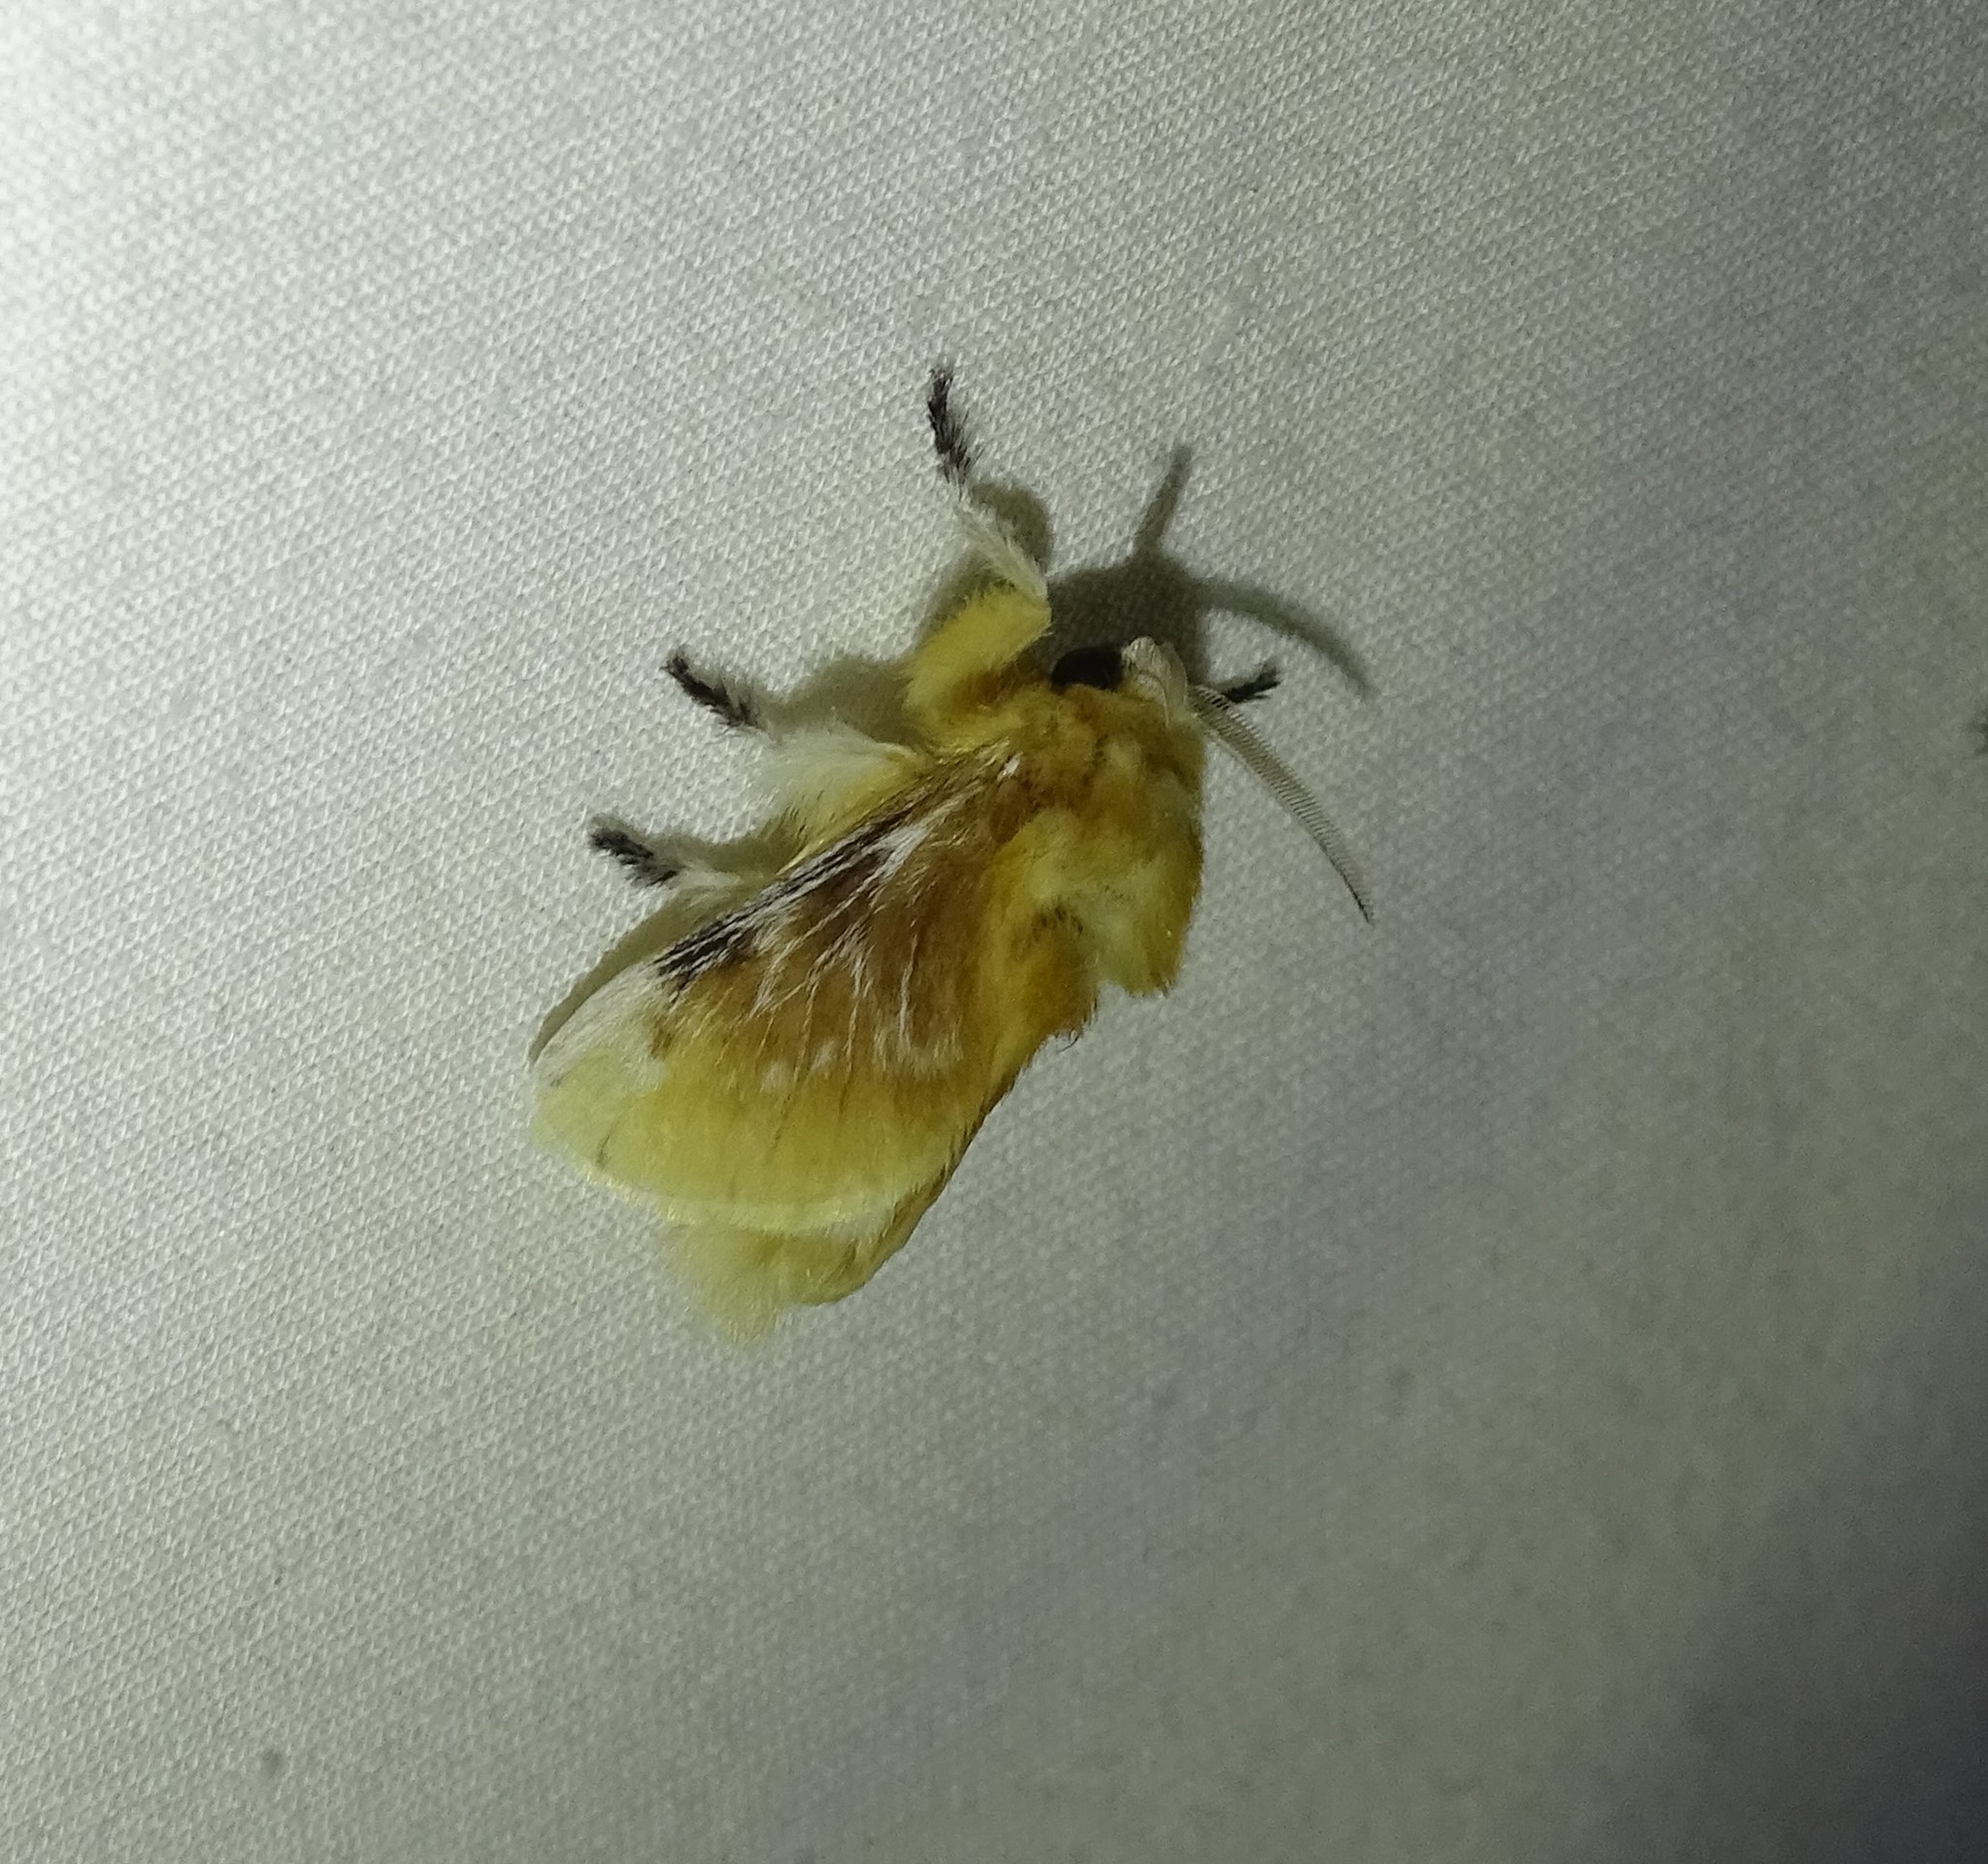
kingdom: Animalia
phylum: Arthropoda
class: Insecta
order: Lepidoptera
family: Megalopygidae
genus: Megalopyge
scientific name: Megalopyge opercularis
